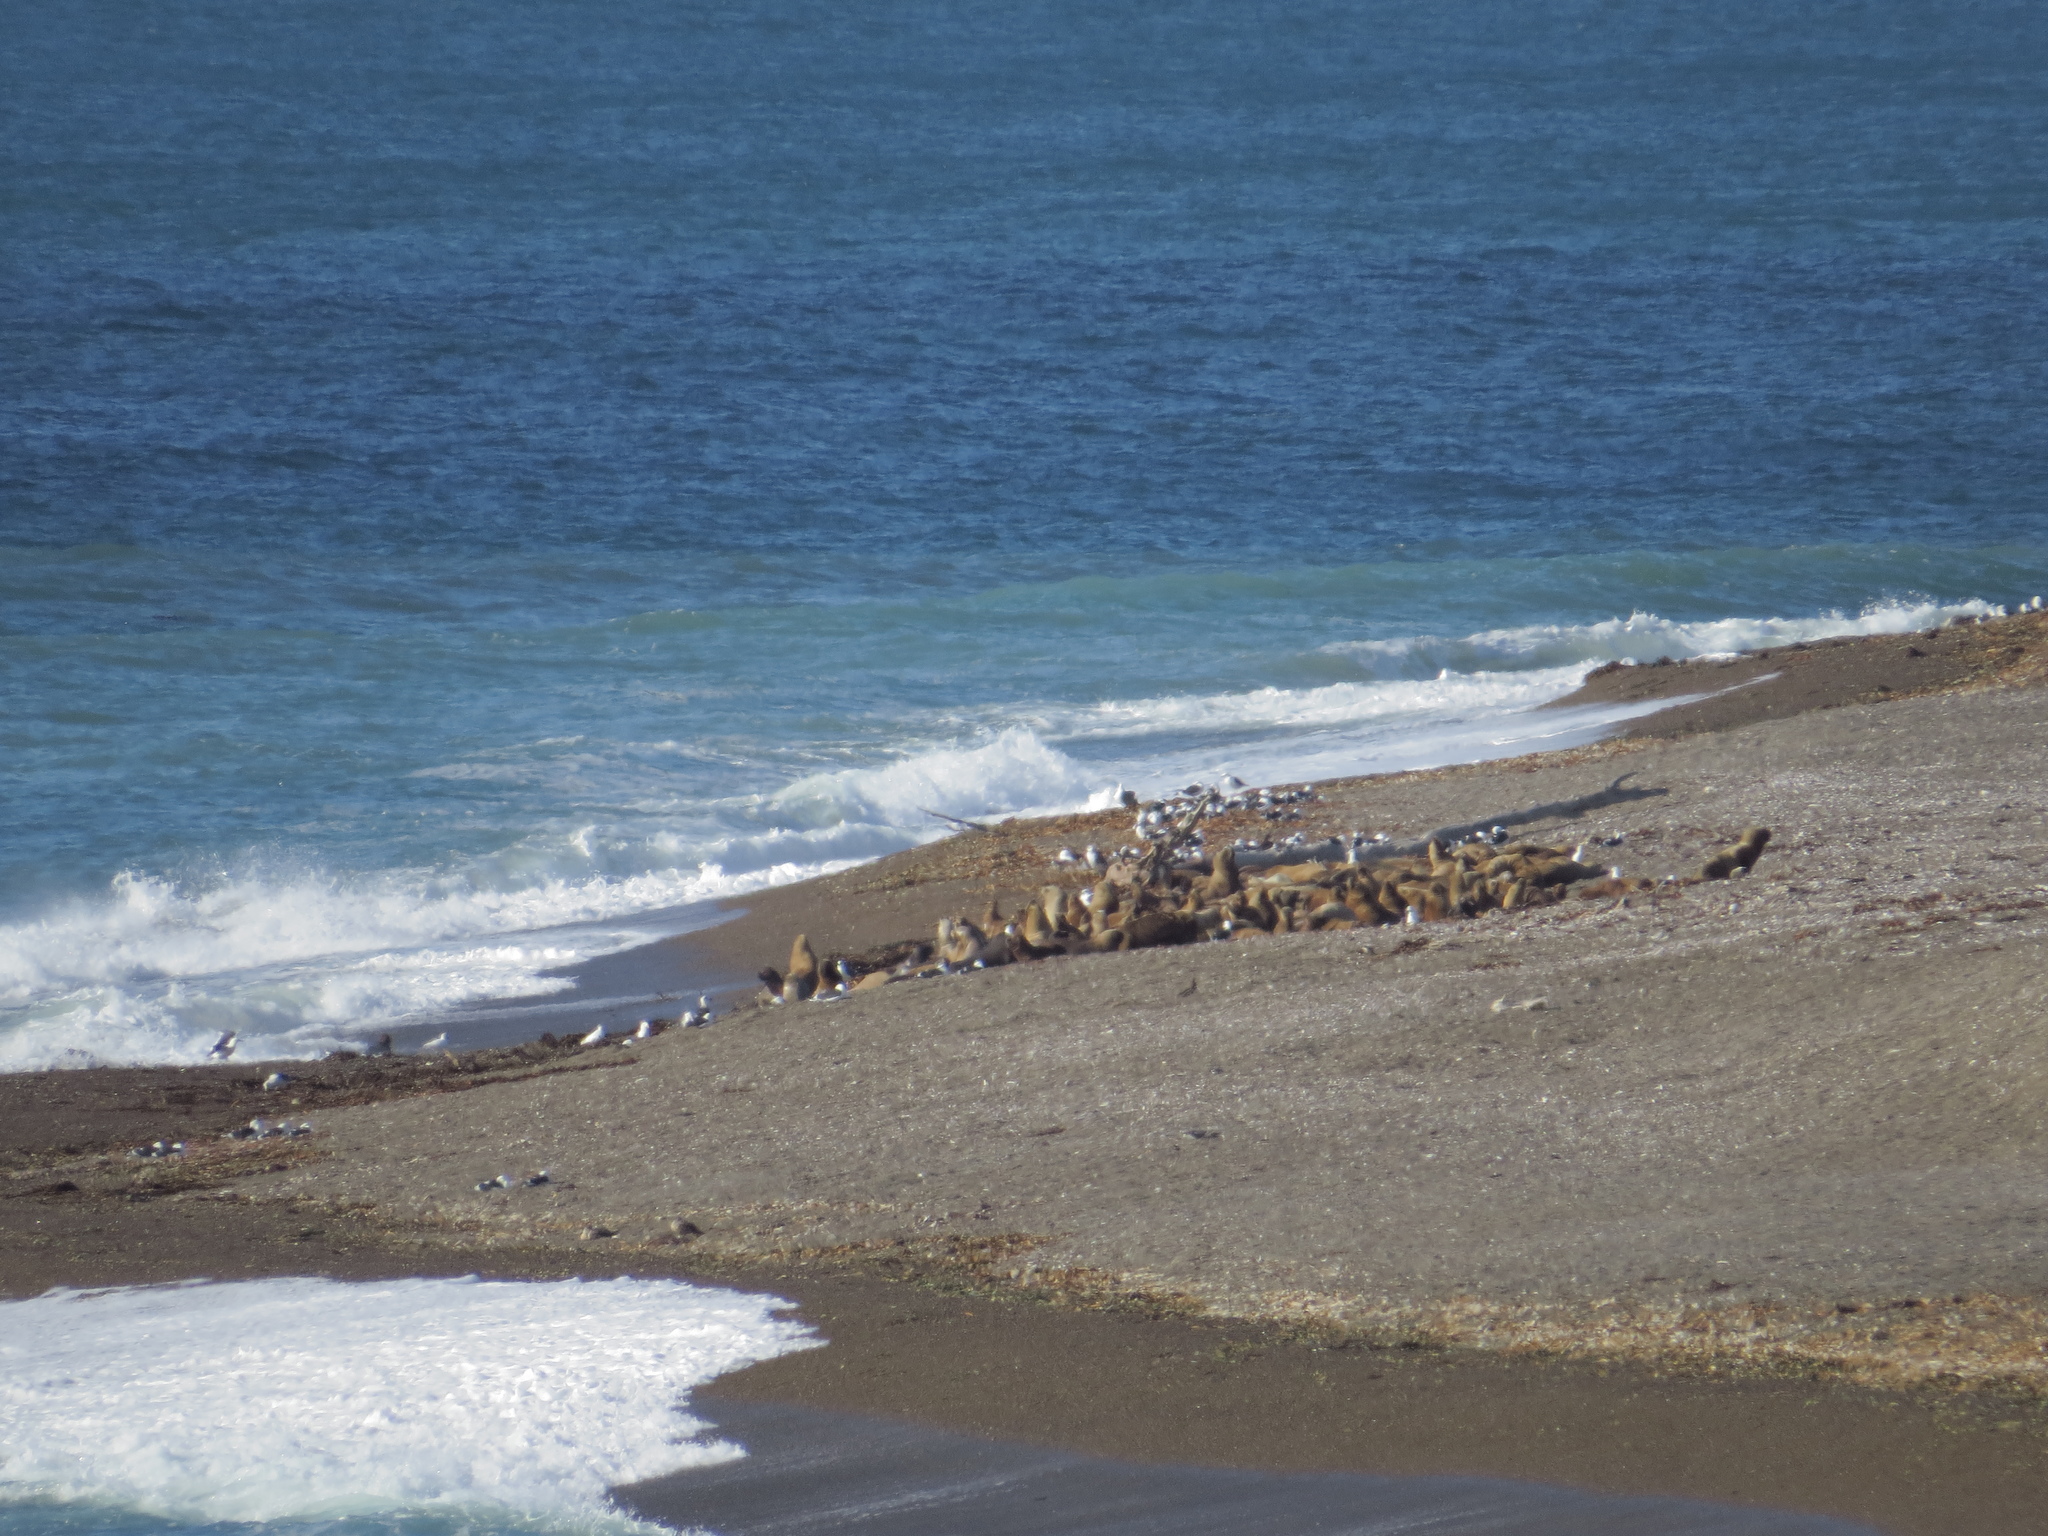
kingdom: Animalia
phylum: Chordata
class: Mammalia
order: Carnivora
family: Otariidae
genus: Otaria
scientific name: Otaria byronia
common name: South american sea lion
